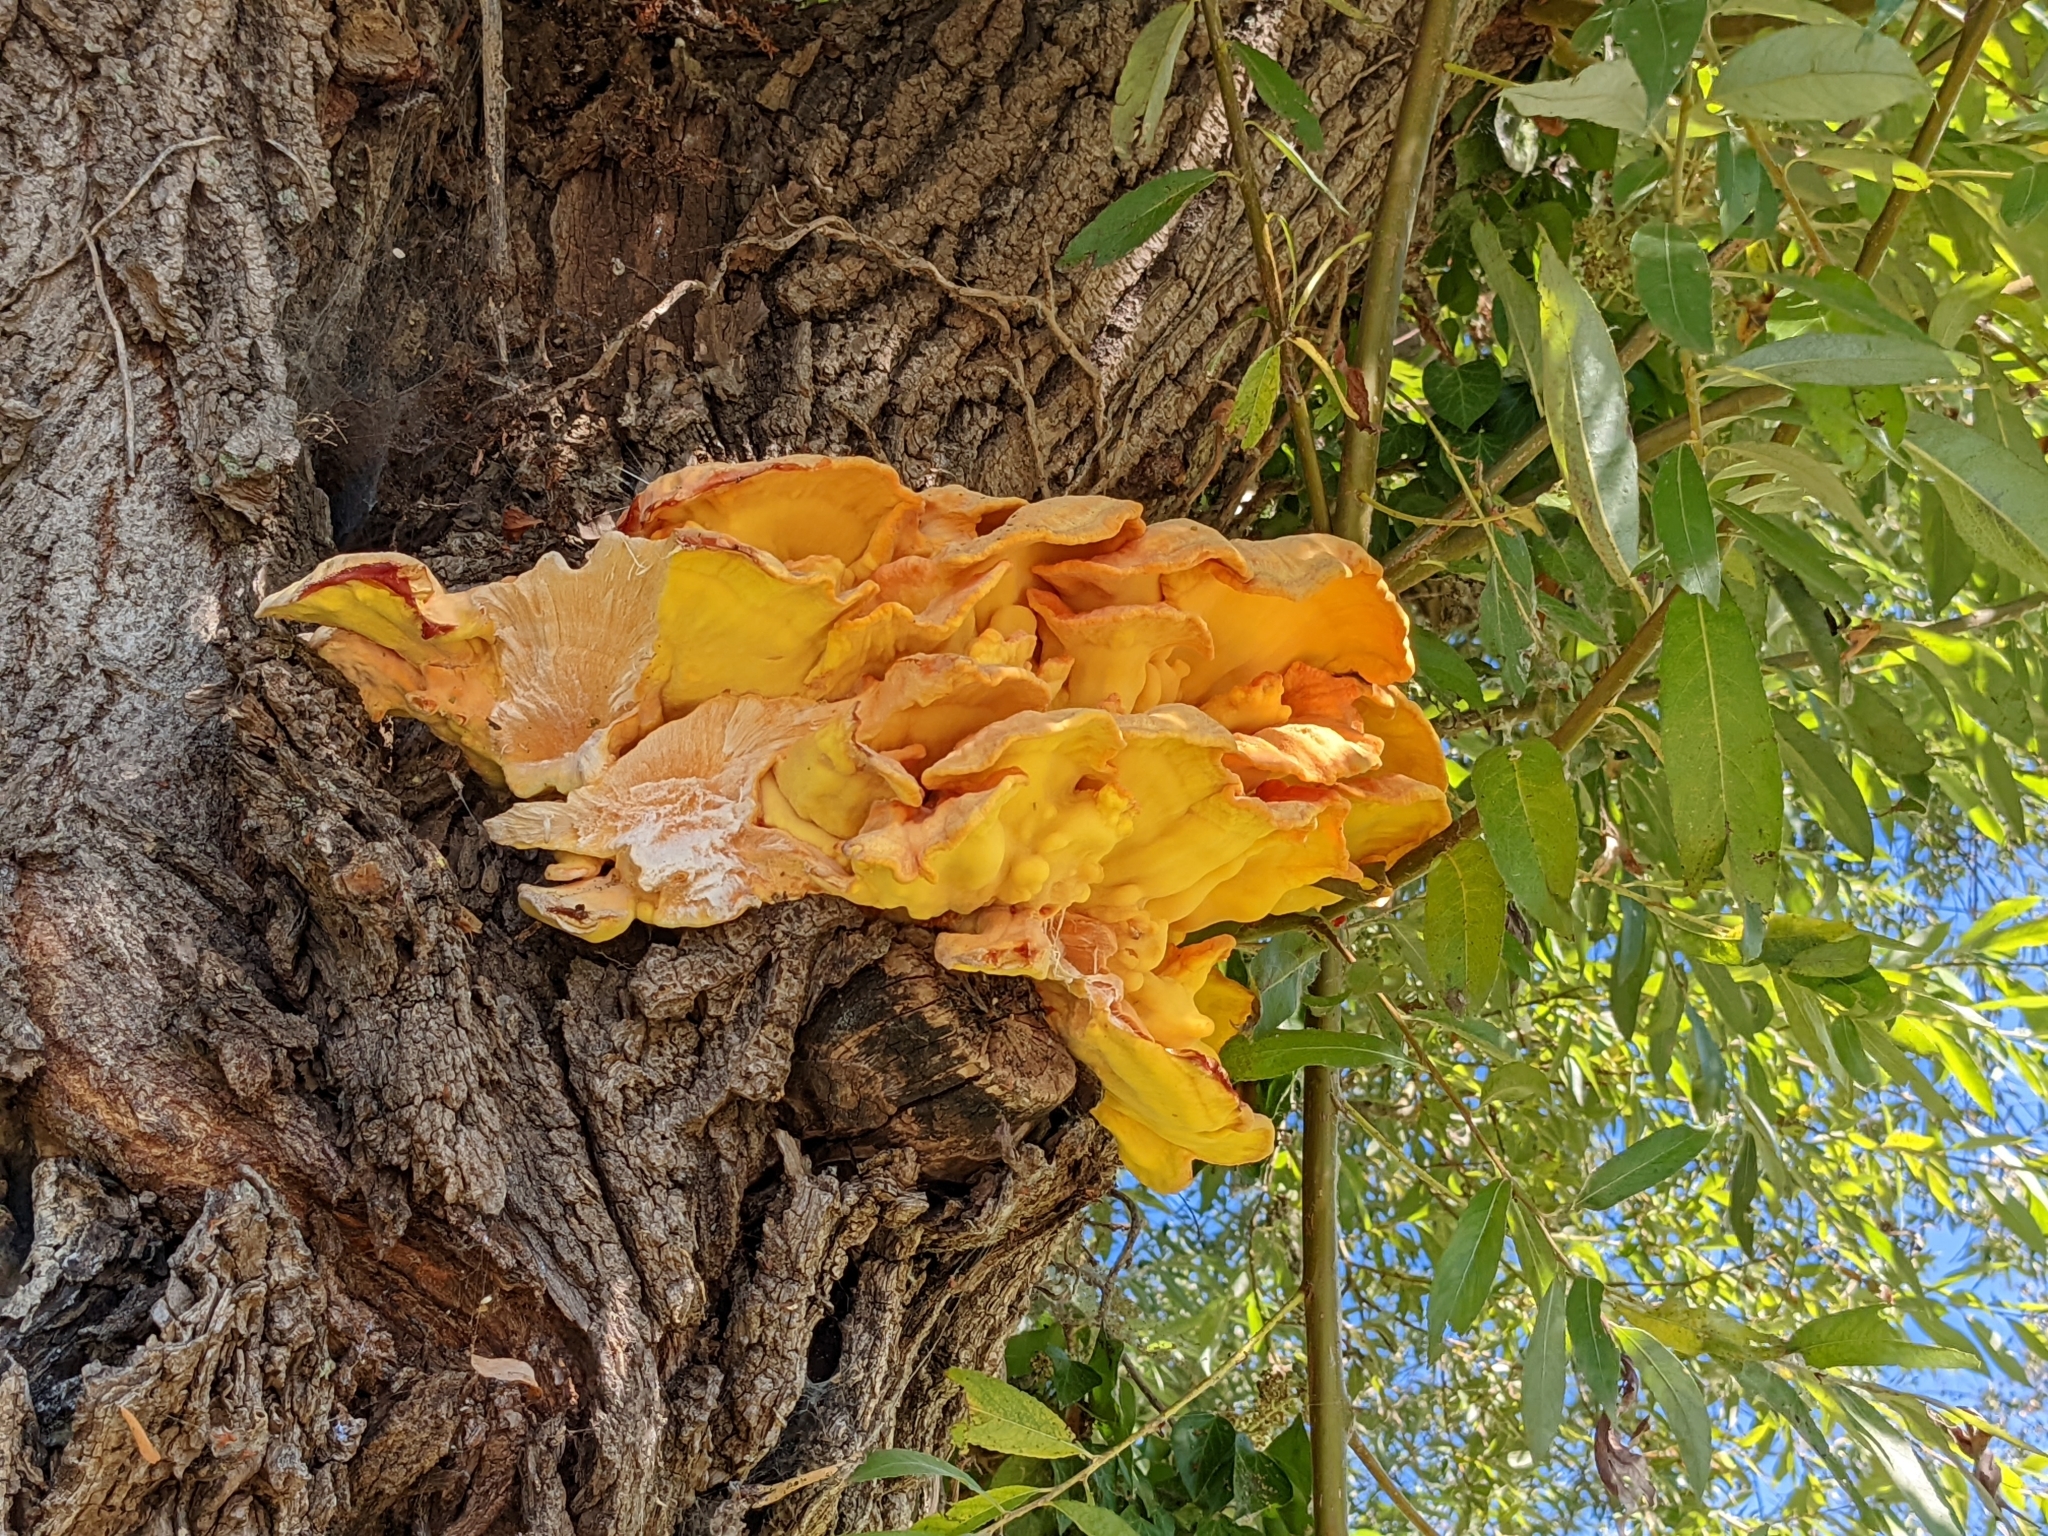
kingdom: Fungi
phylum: Basidiomycota
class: Agaricomycetes
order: Polyporales
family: Laetiporaceae
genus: Laetiporus
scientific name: Laetiporus sulphureus
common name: Chicken of the woods
